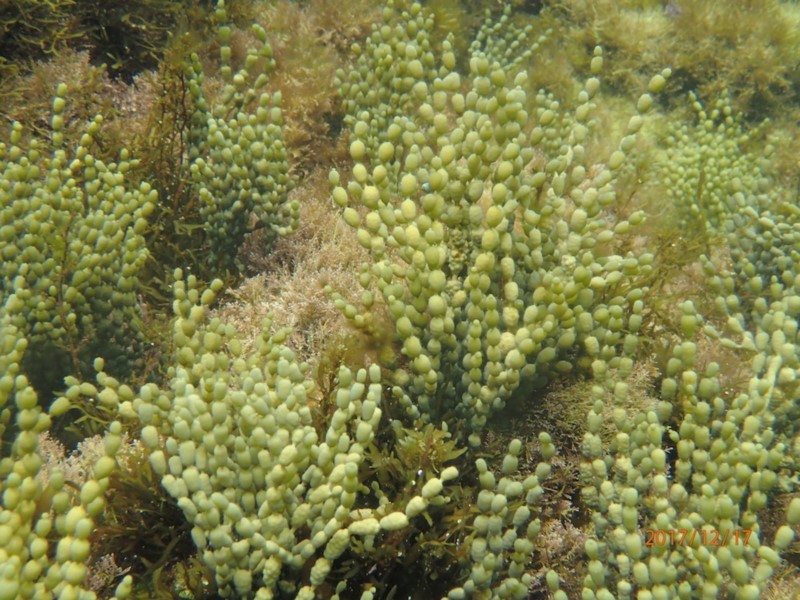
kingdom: Chromista
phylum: Ochrophyta
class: Phaeophyceae
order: Fucales
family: Hormosiraceae
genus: Hormosira
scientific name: Hormosira banksii
